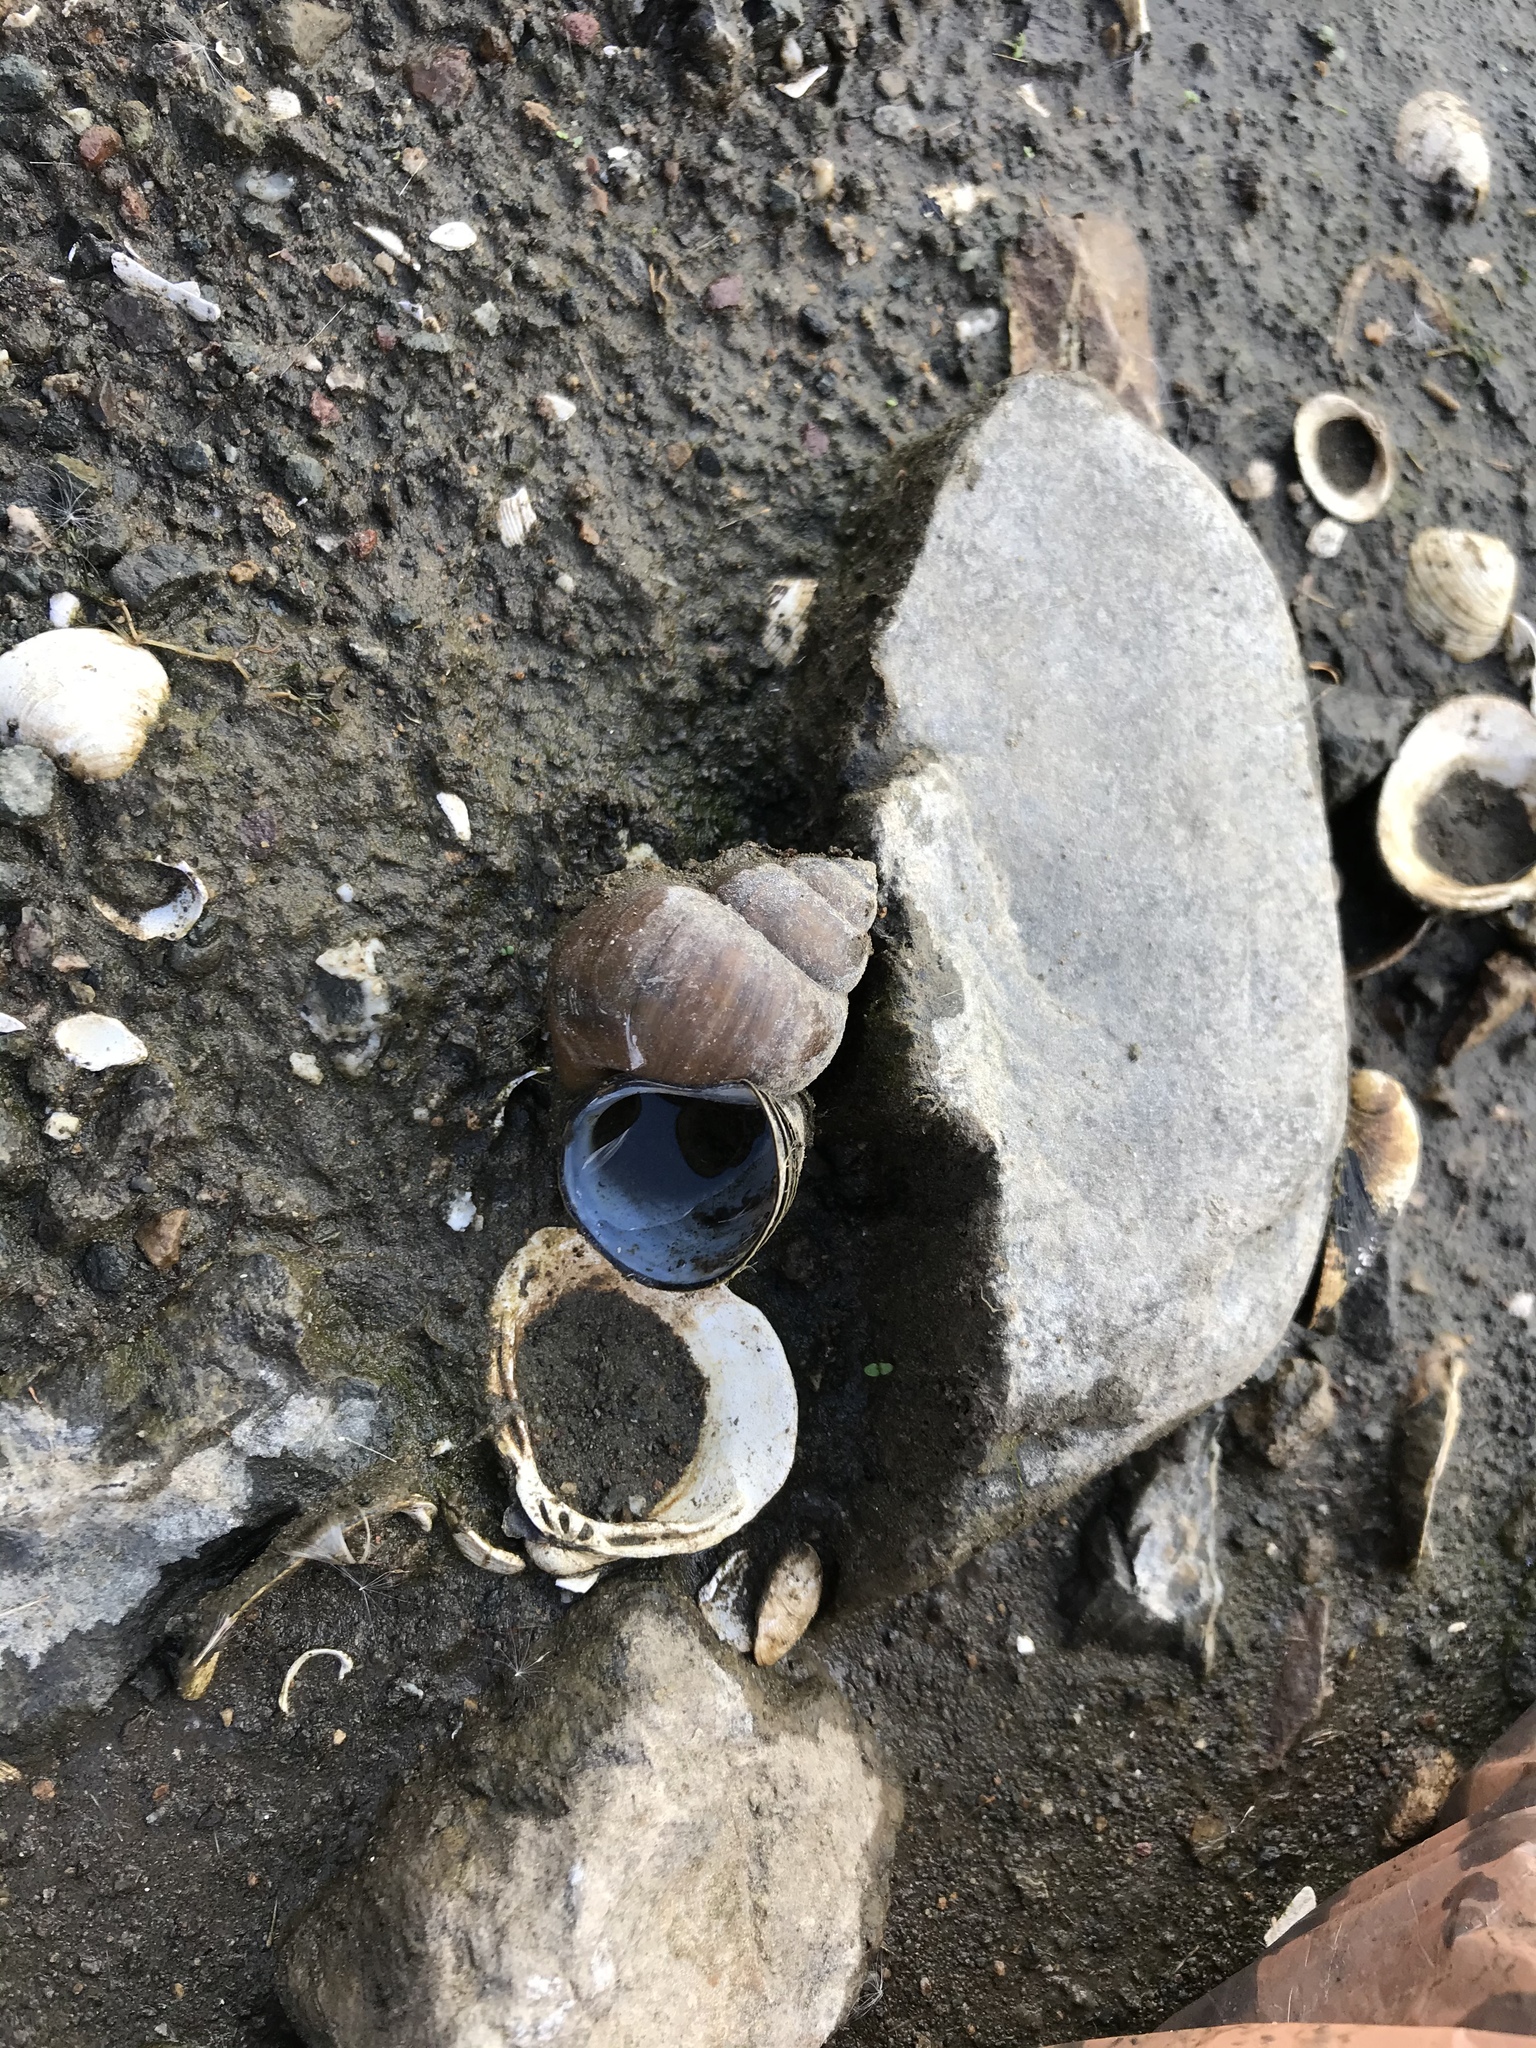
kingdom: Animalia
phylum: Mollusca
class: Bivalvia
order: Venerida
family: Cyrenidae
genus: Corbicula
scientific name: Corbicula fluminea
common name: Asian clam
